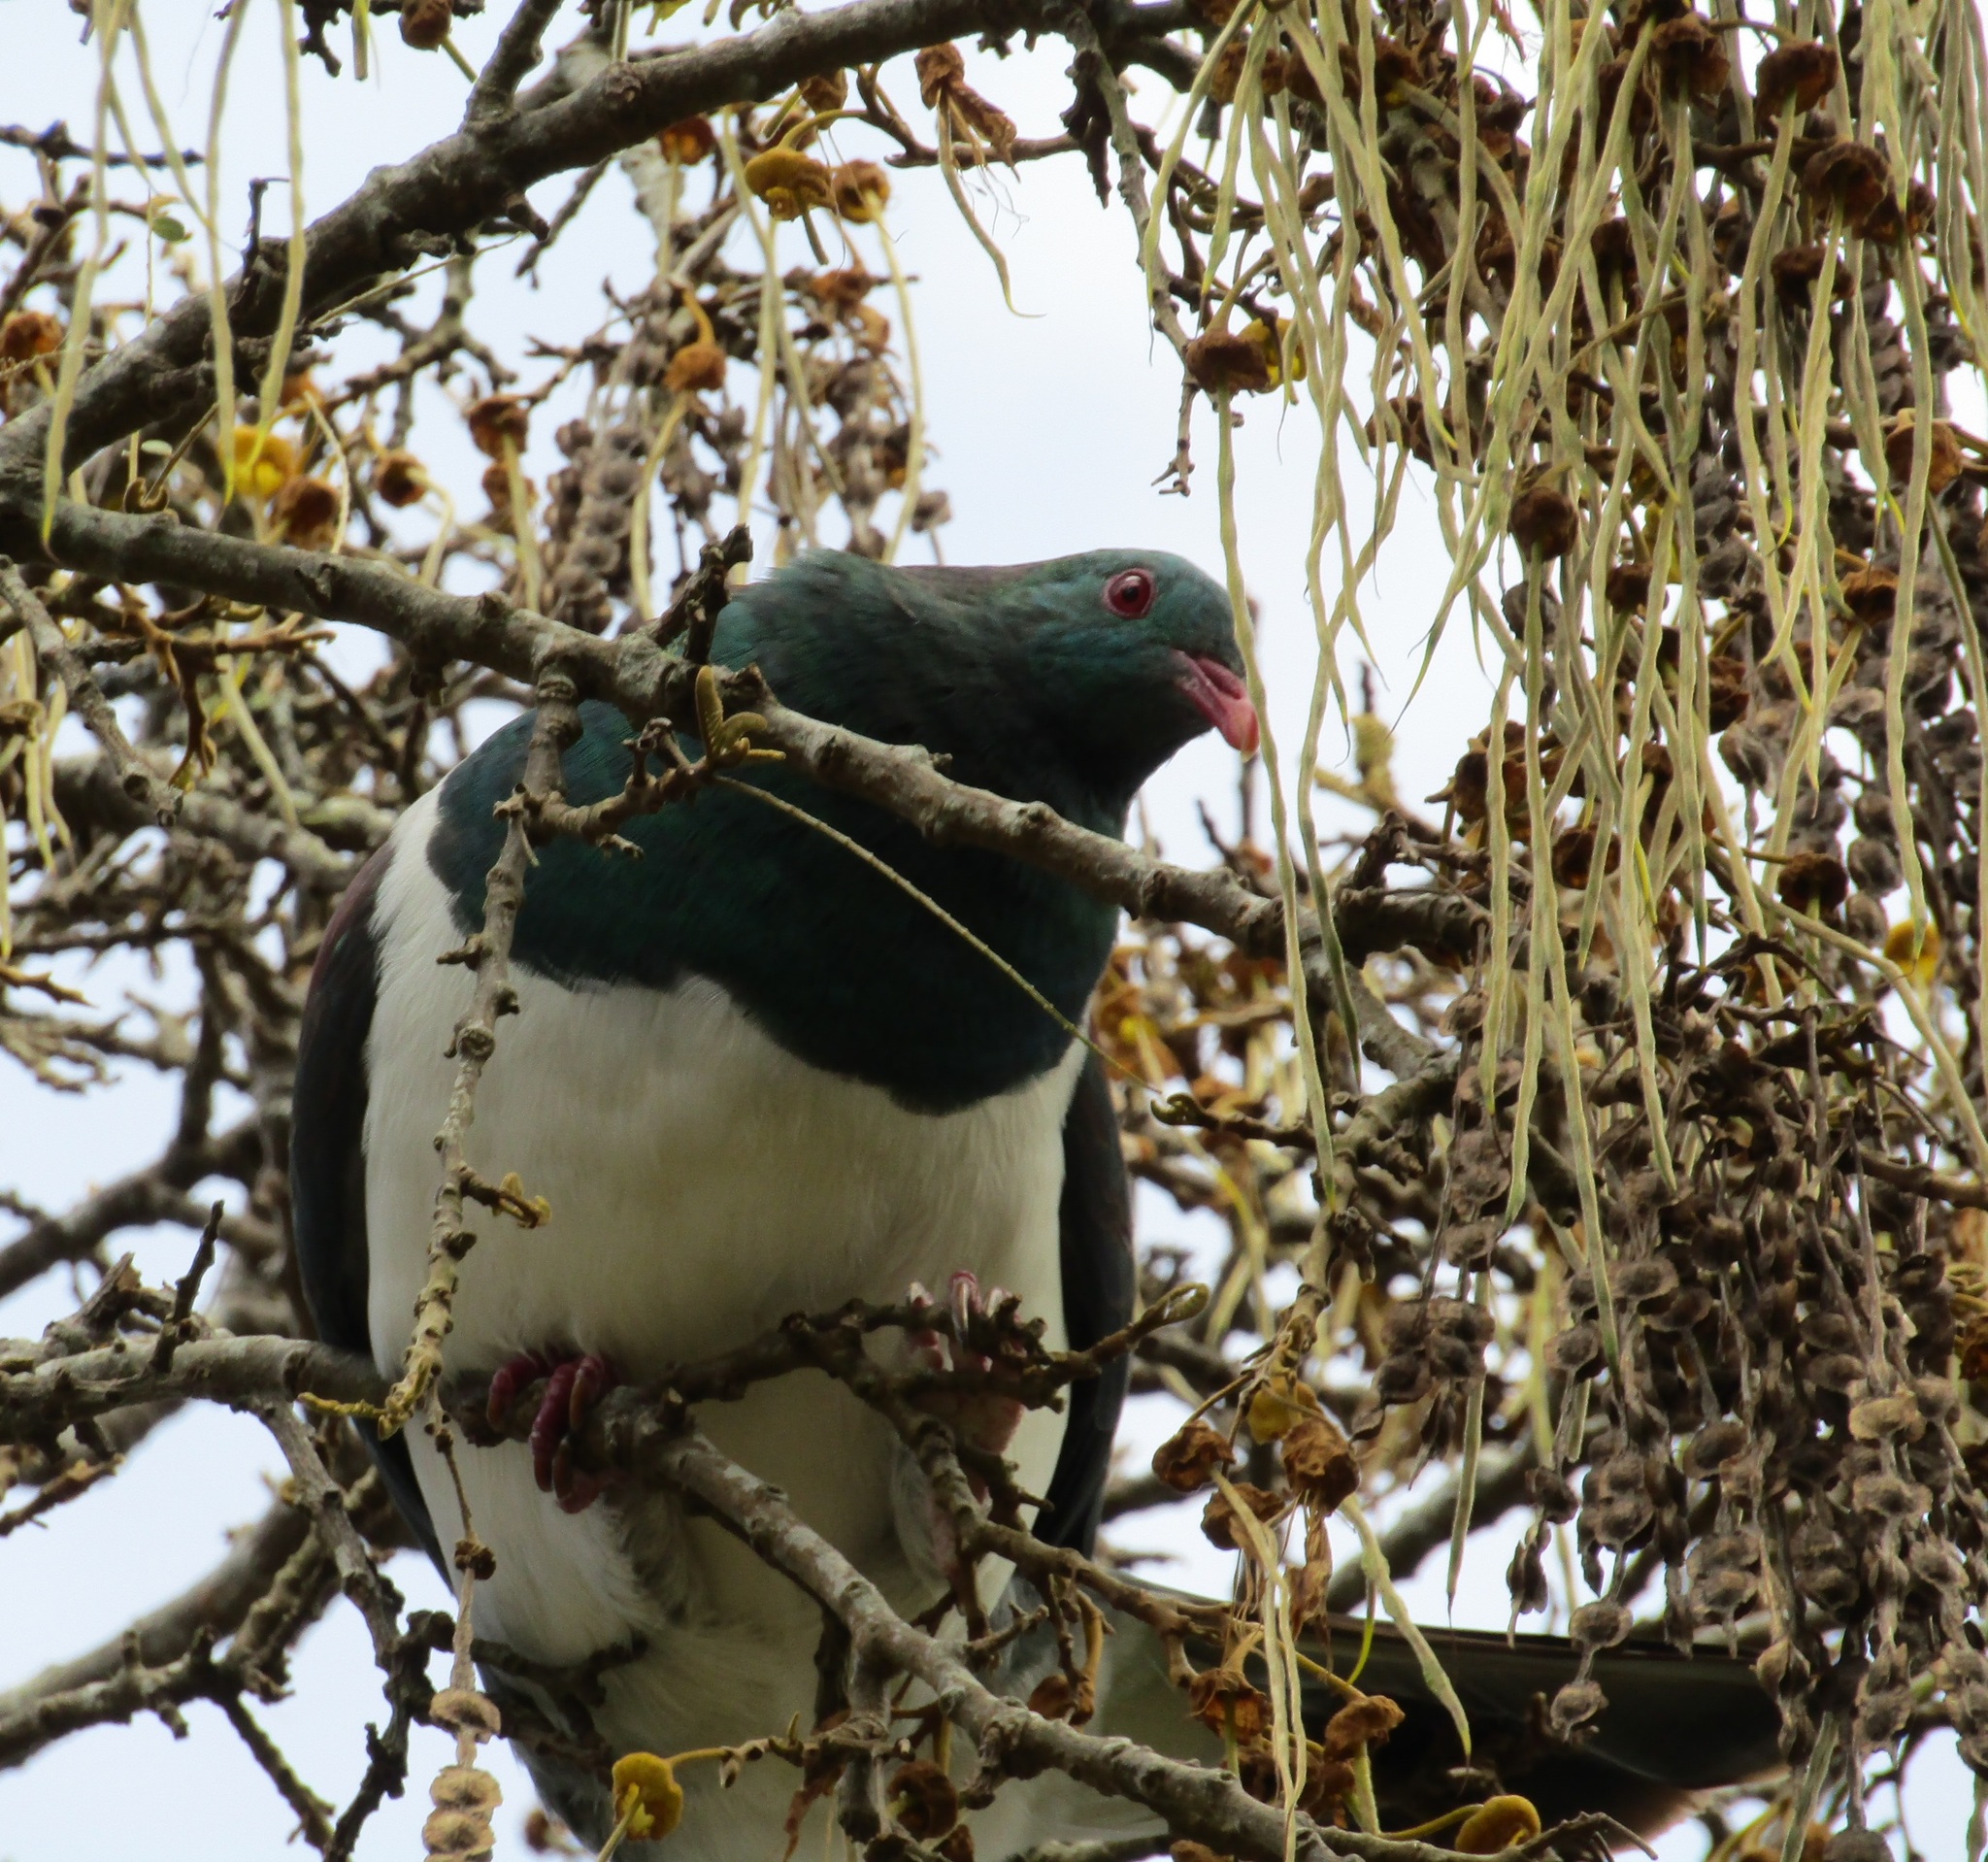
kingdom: Animalia
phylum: Chordata
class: Aves
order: Columbiformes
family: Columbidae
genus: Hemiphaga
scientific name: Hemiphaga novaeseelandiae
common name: New zealand pigeon
